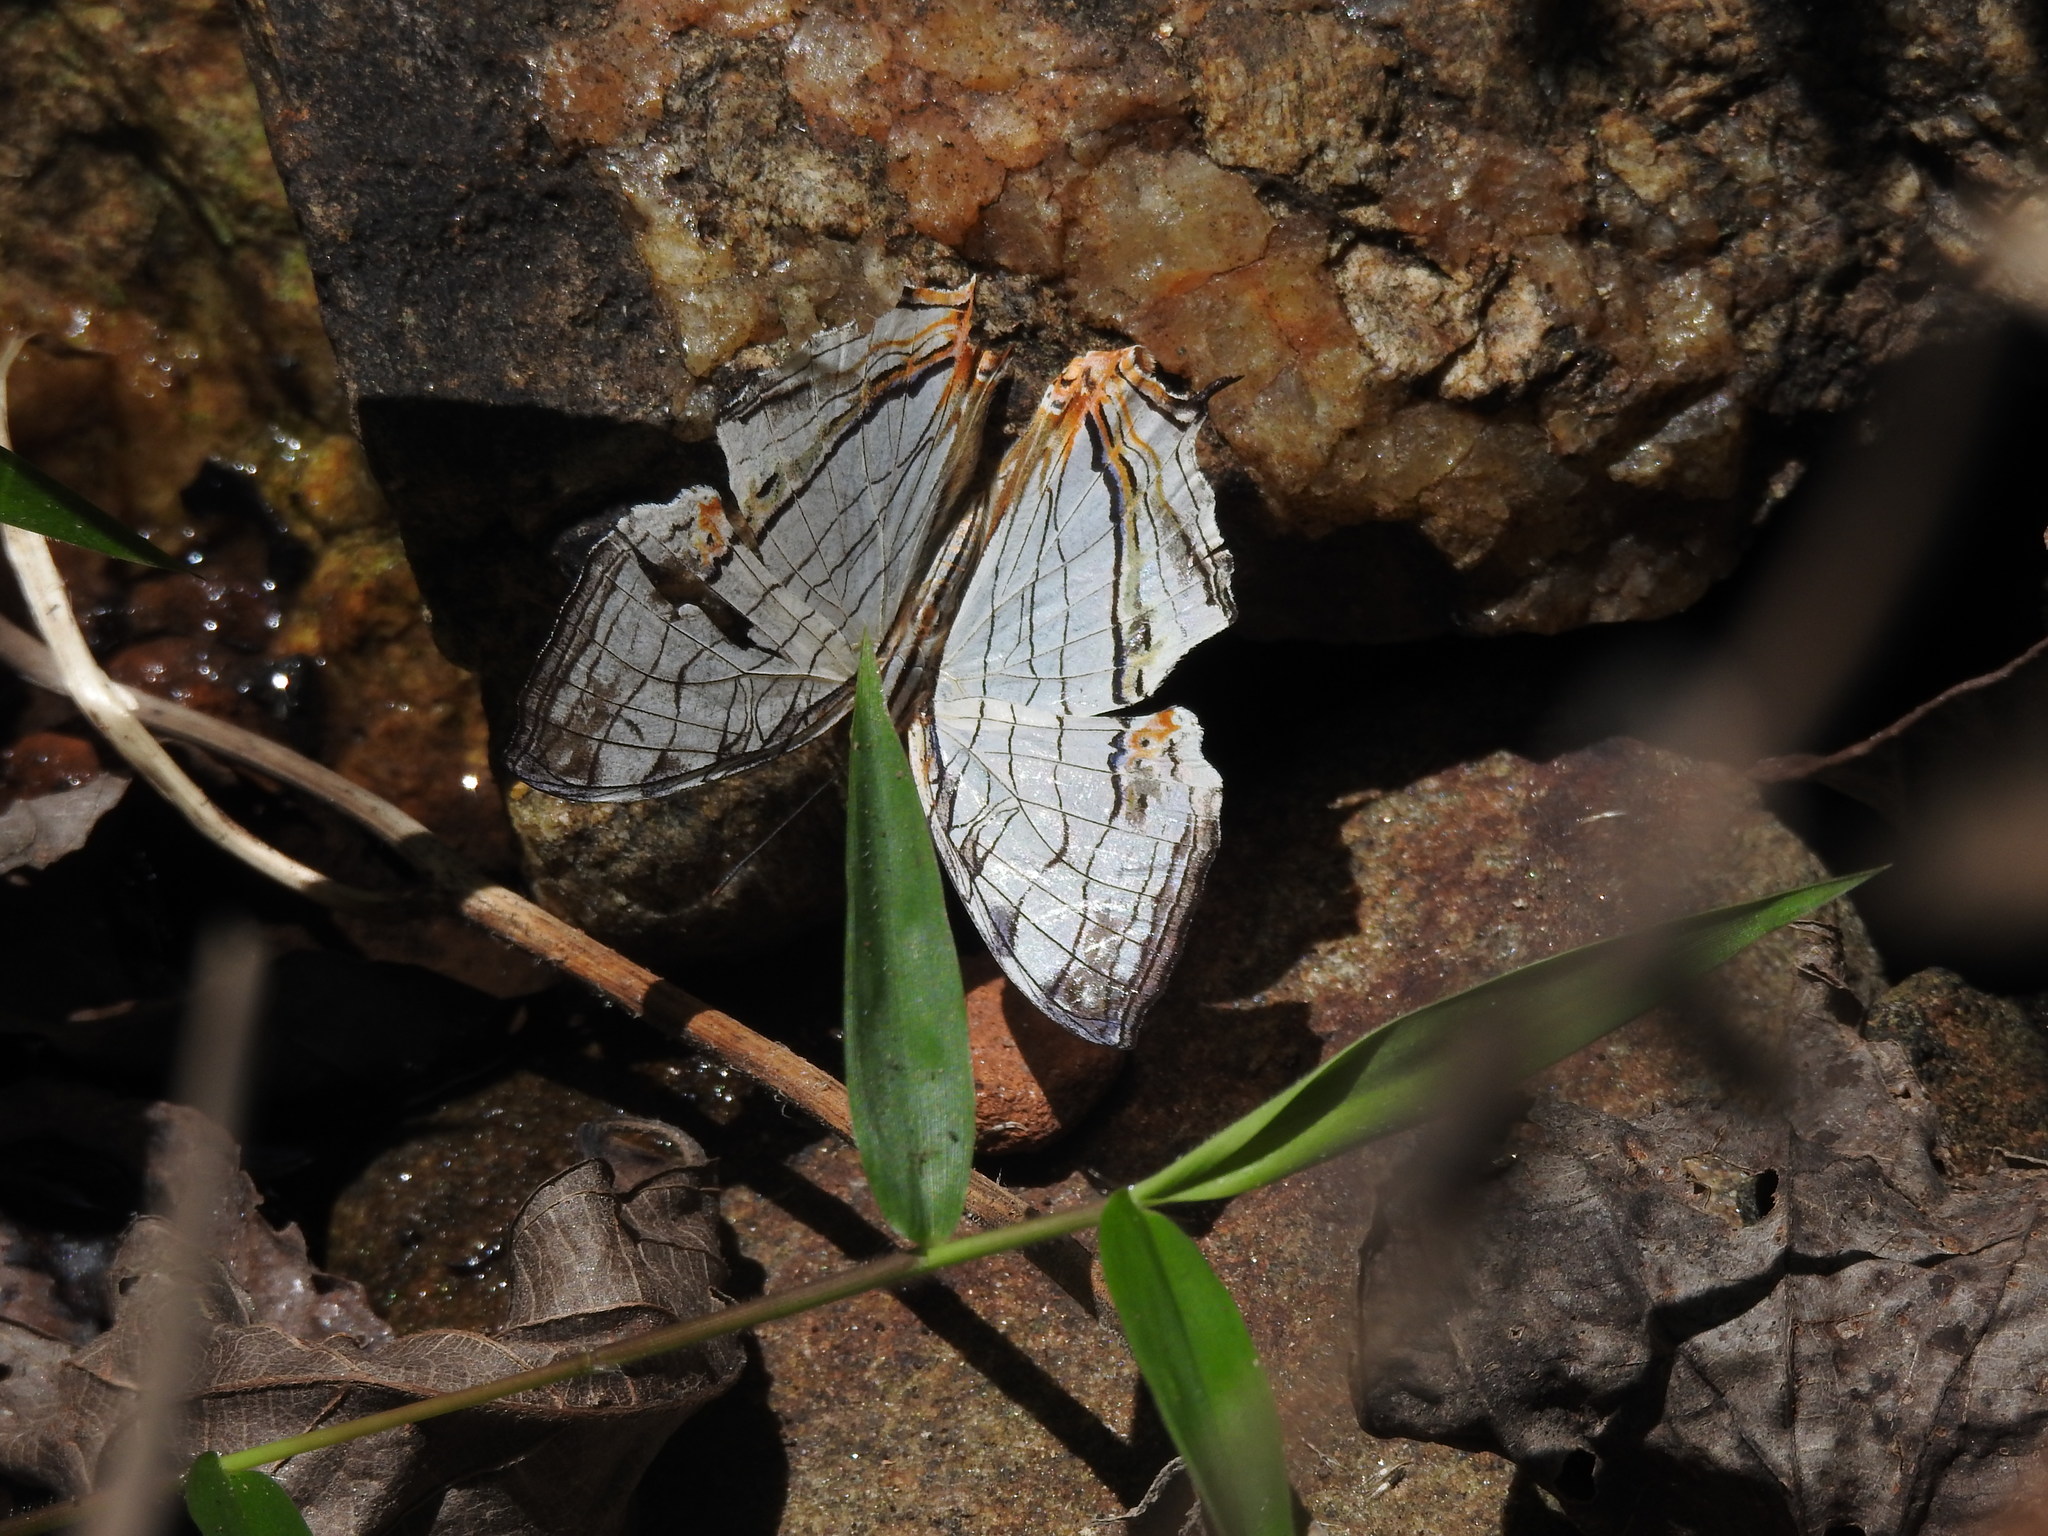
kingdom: Animalia
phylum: Arthropoda
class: Insecta
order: Lepidoptera
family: Nymphalidae
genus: Cyrestis
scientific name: Cyrestis thyodamas
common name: Common mapwing
